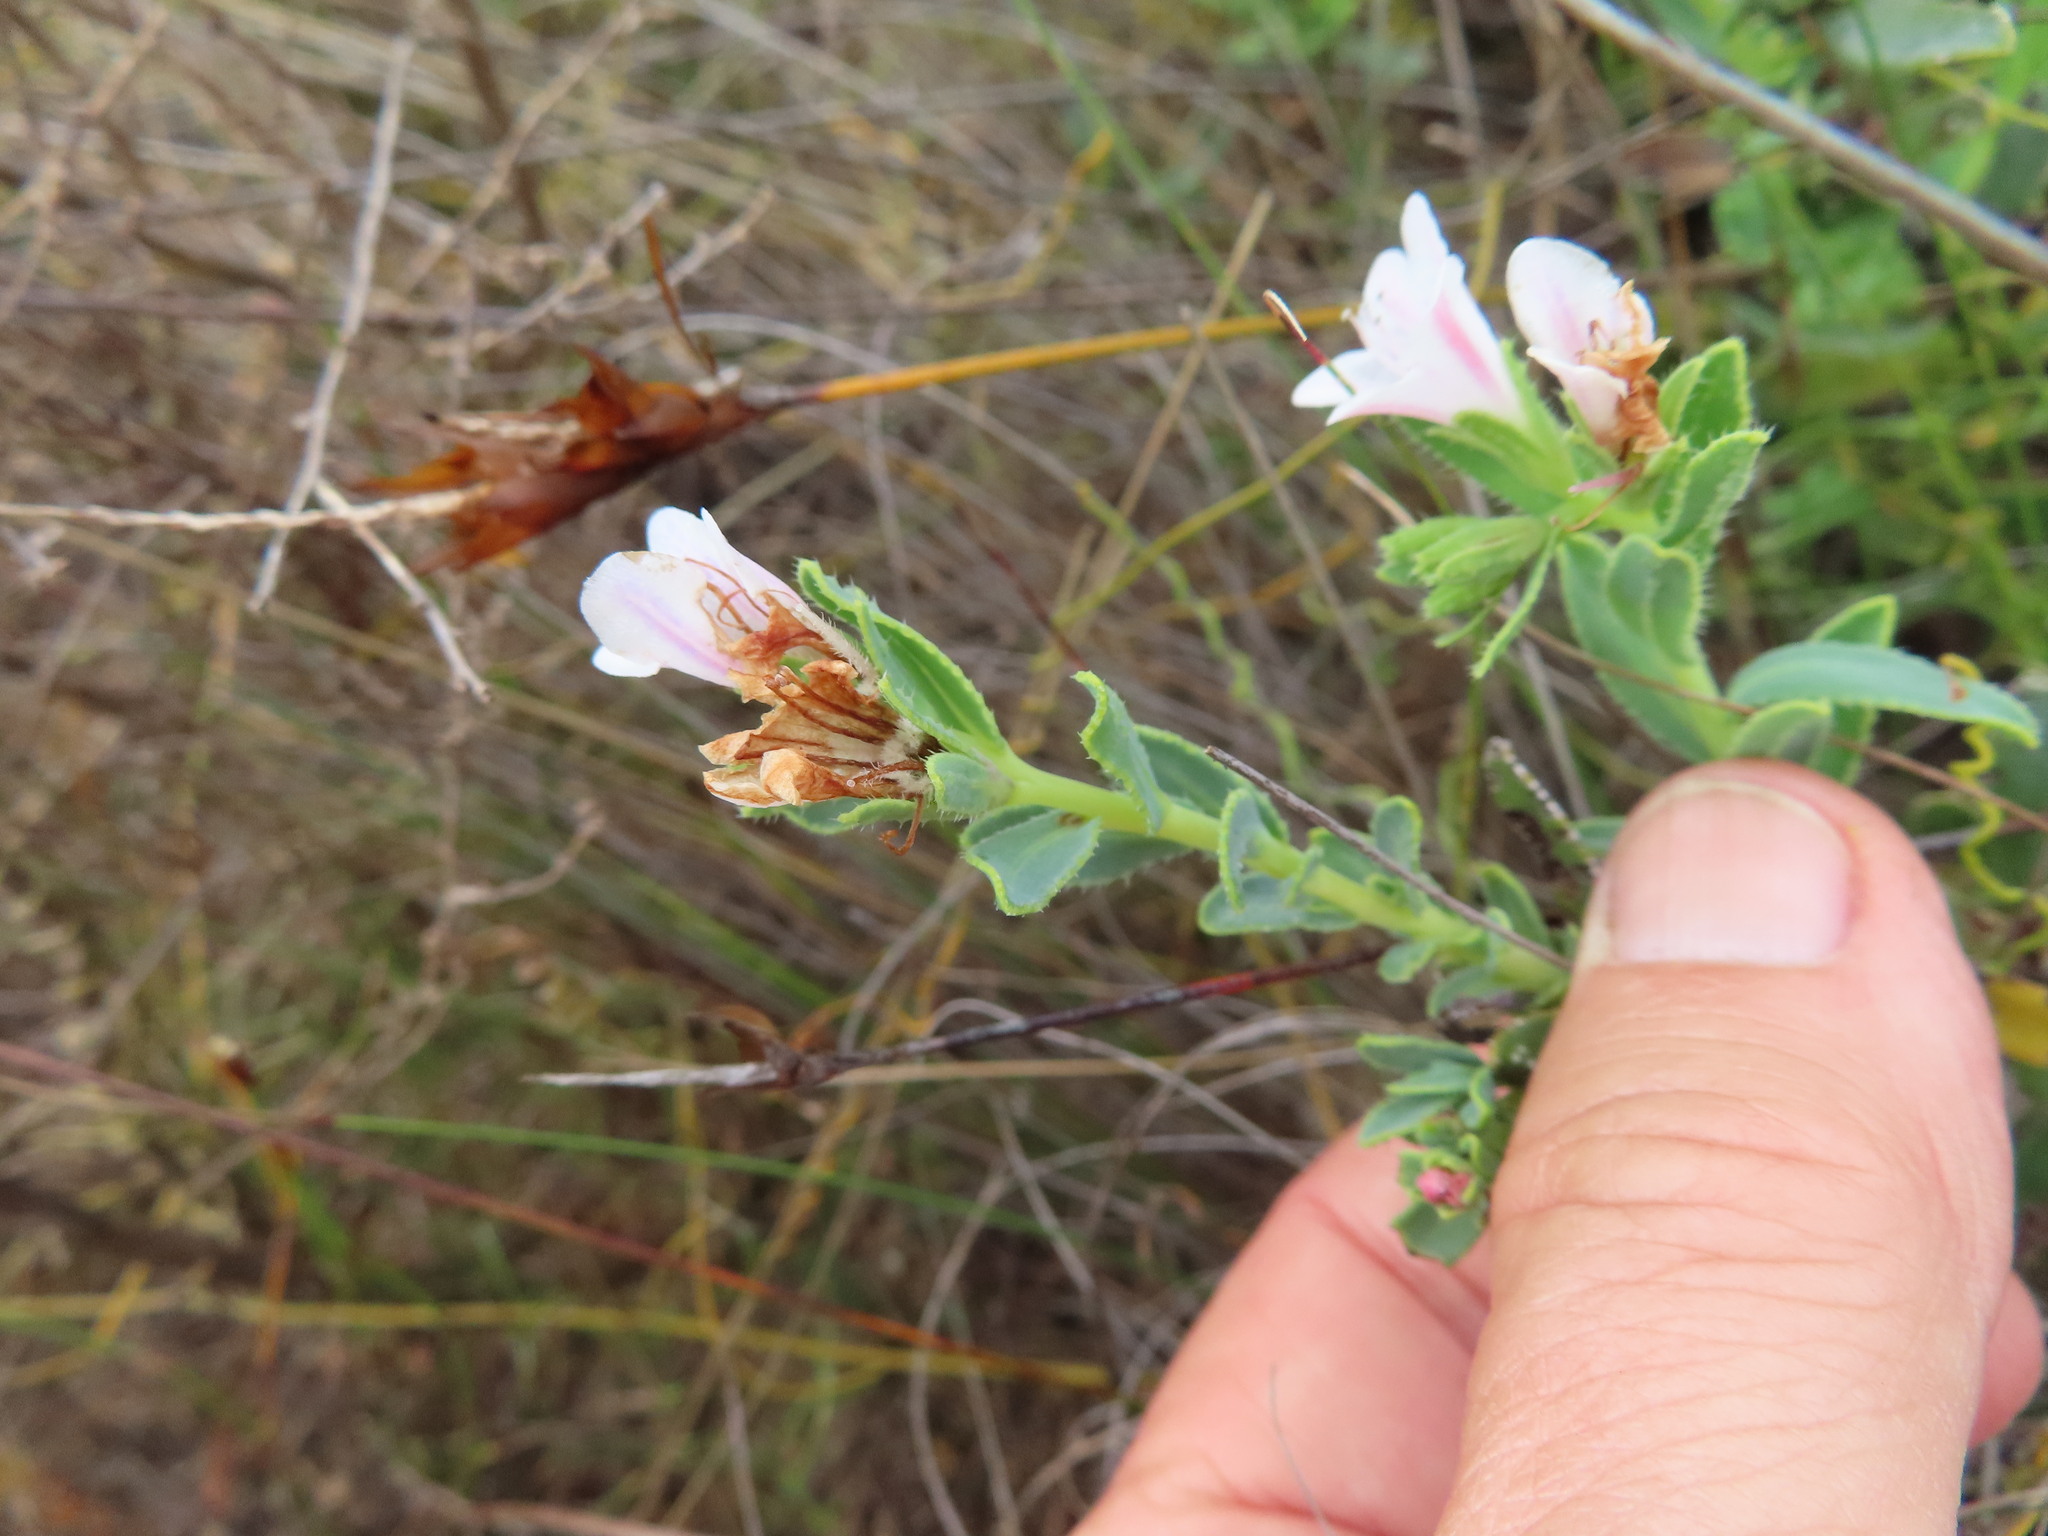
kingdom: Plantae
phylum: Tracheophyta
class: Magnoliopsida
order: Boraginales
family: Boraginaceae
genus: Lobostemon
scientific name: Lobostemon hottentoticus
